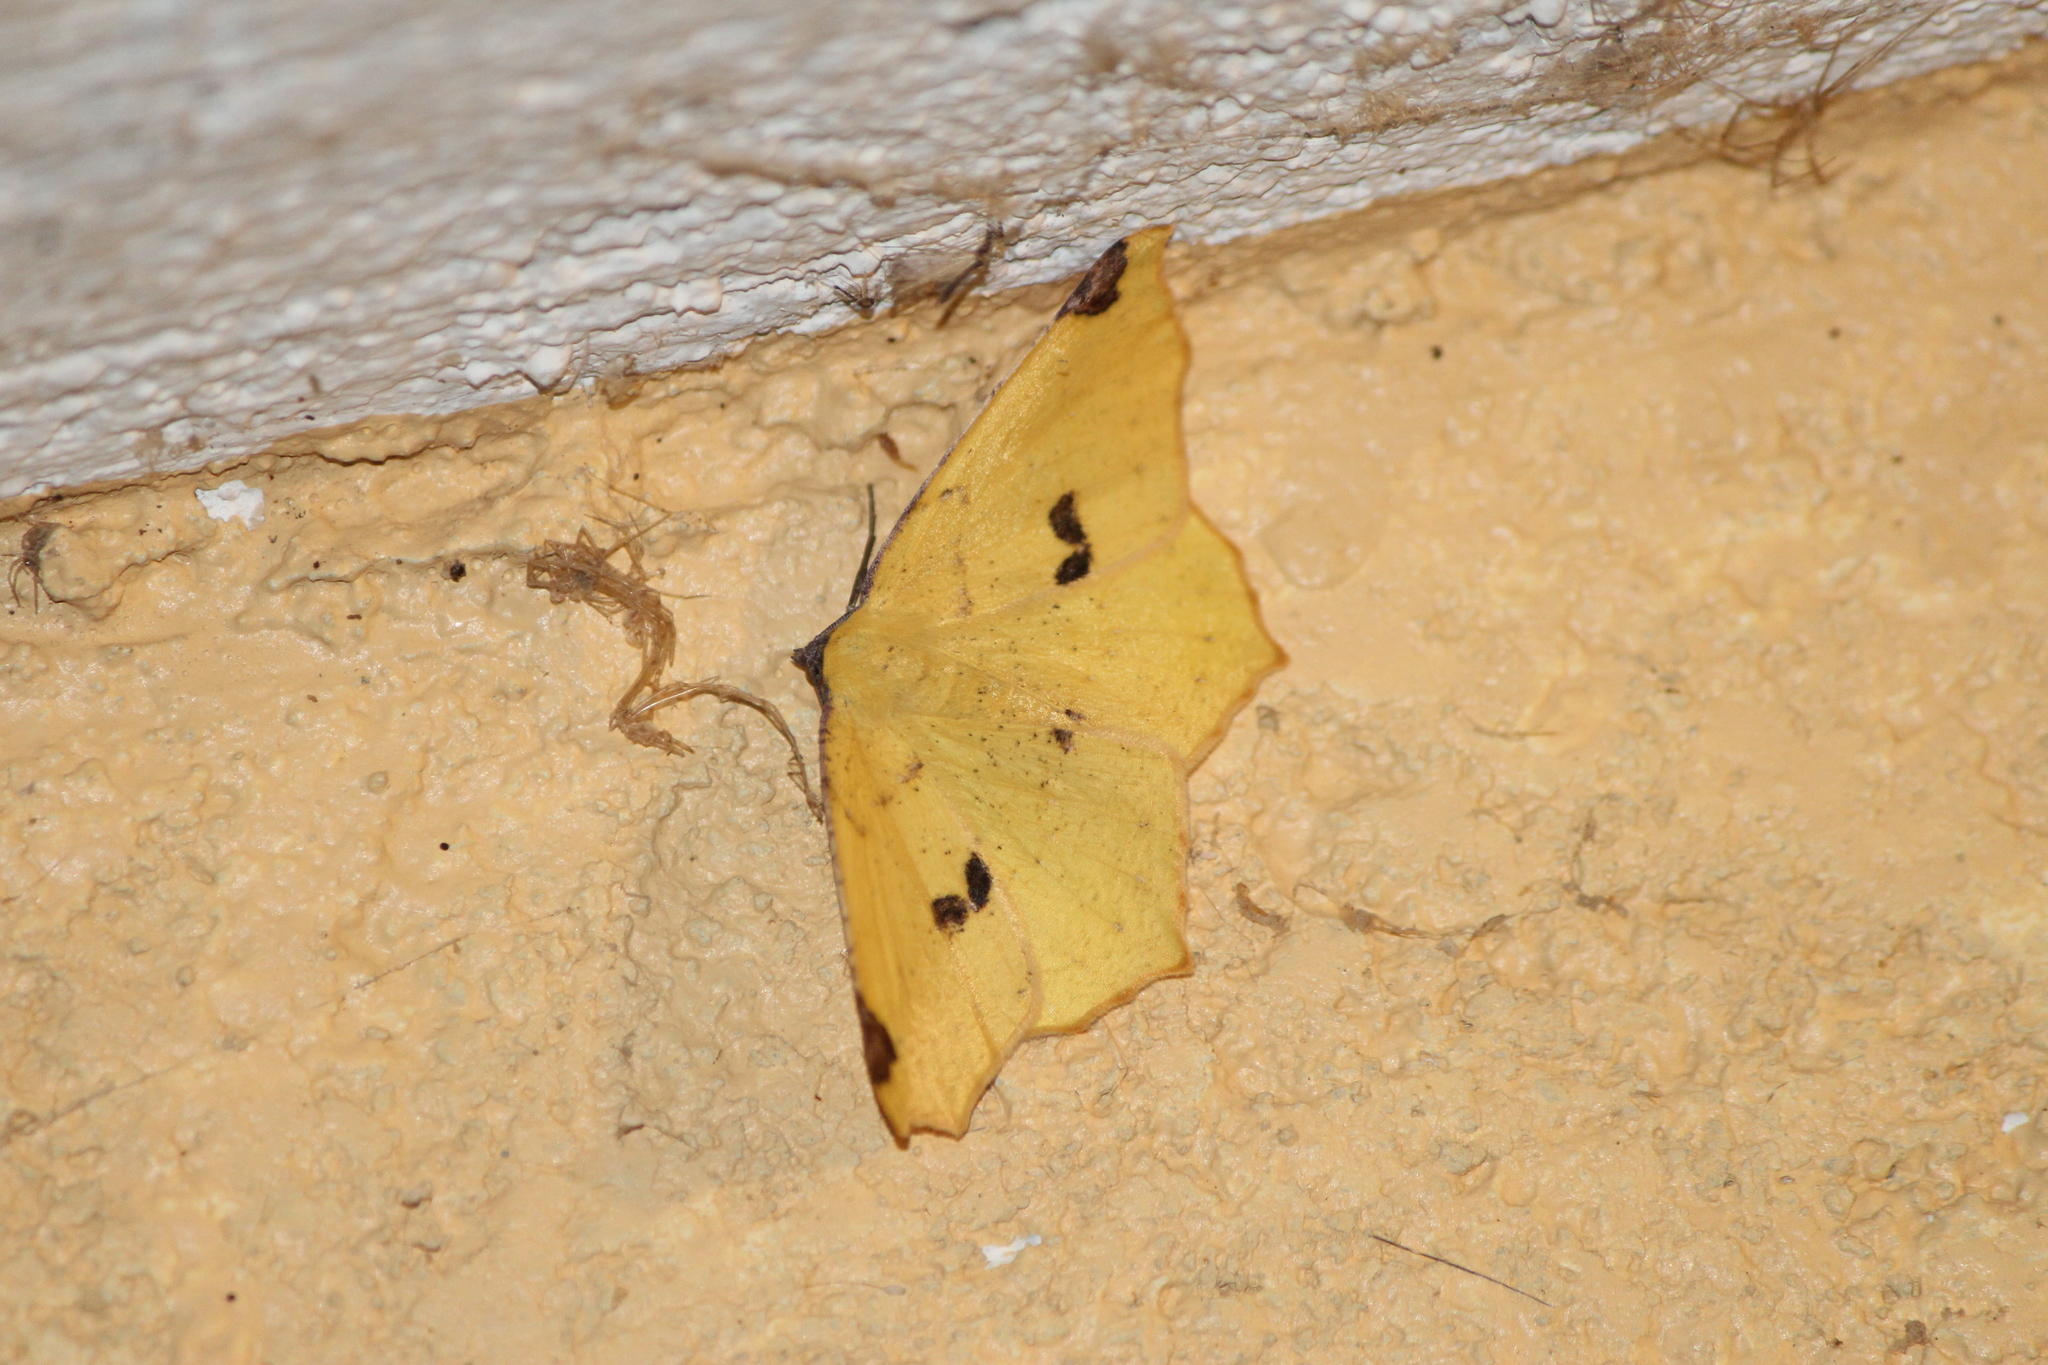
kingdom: Animalia
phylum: Arthropoda
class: Insecta
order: Lepidoptera
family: Geometridae
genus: Antepione
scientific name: Antepione thisoaria
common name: Variable antipione
